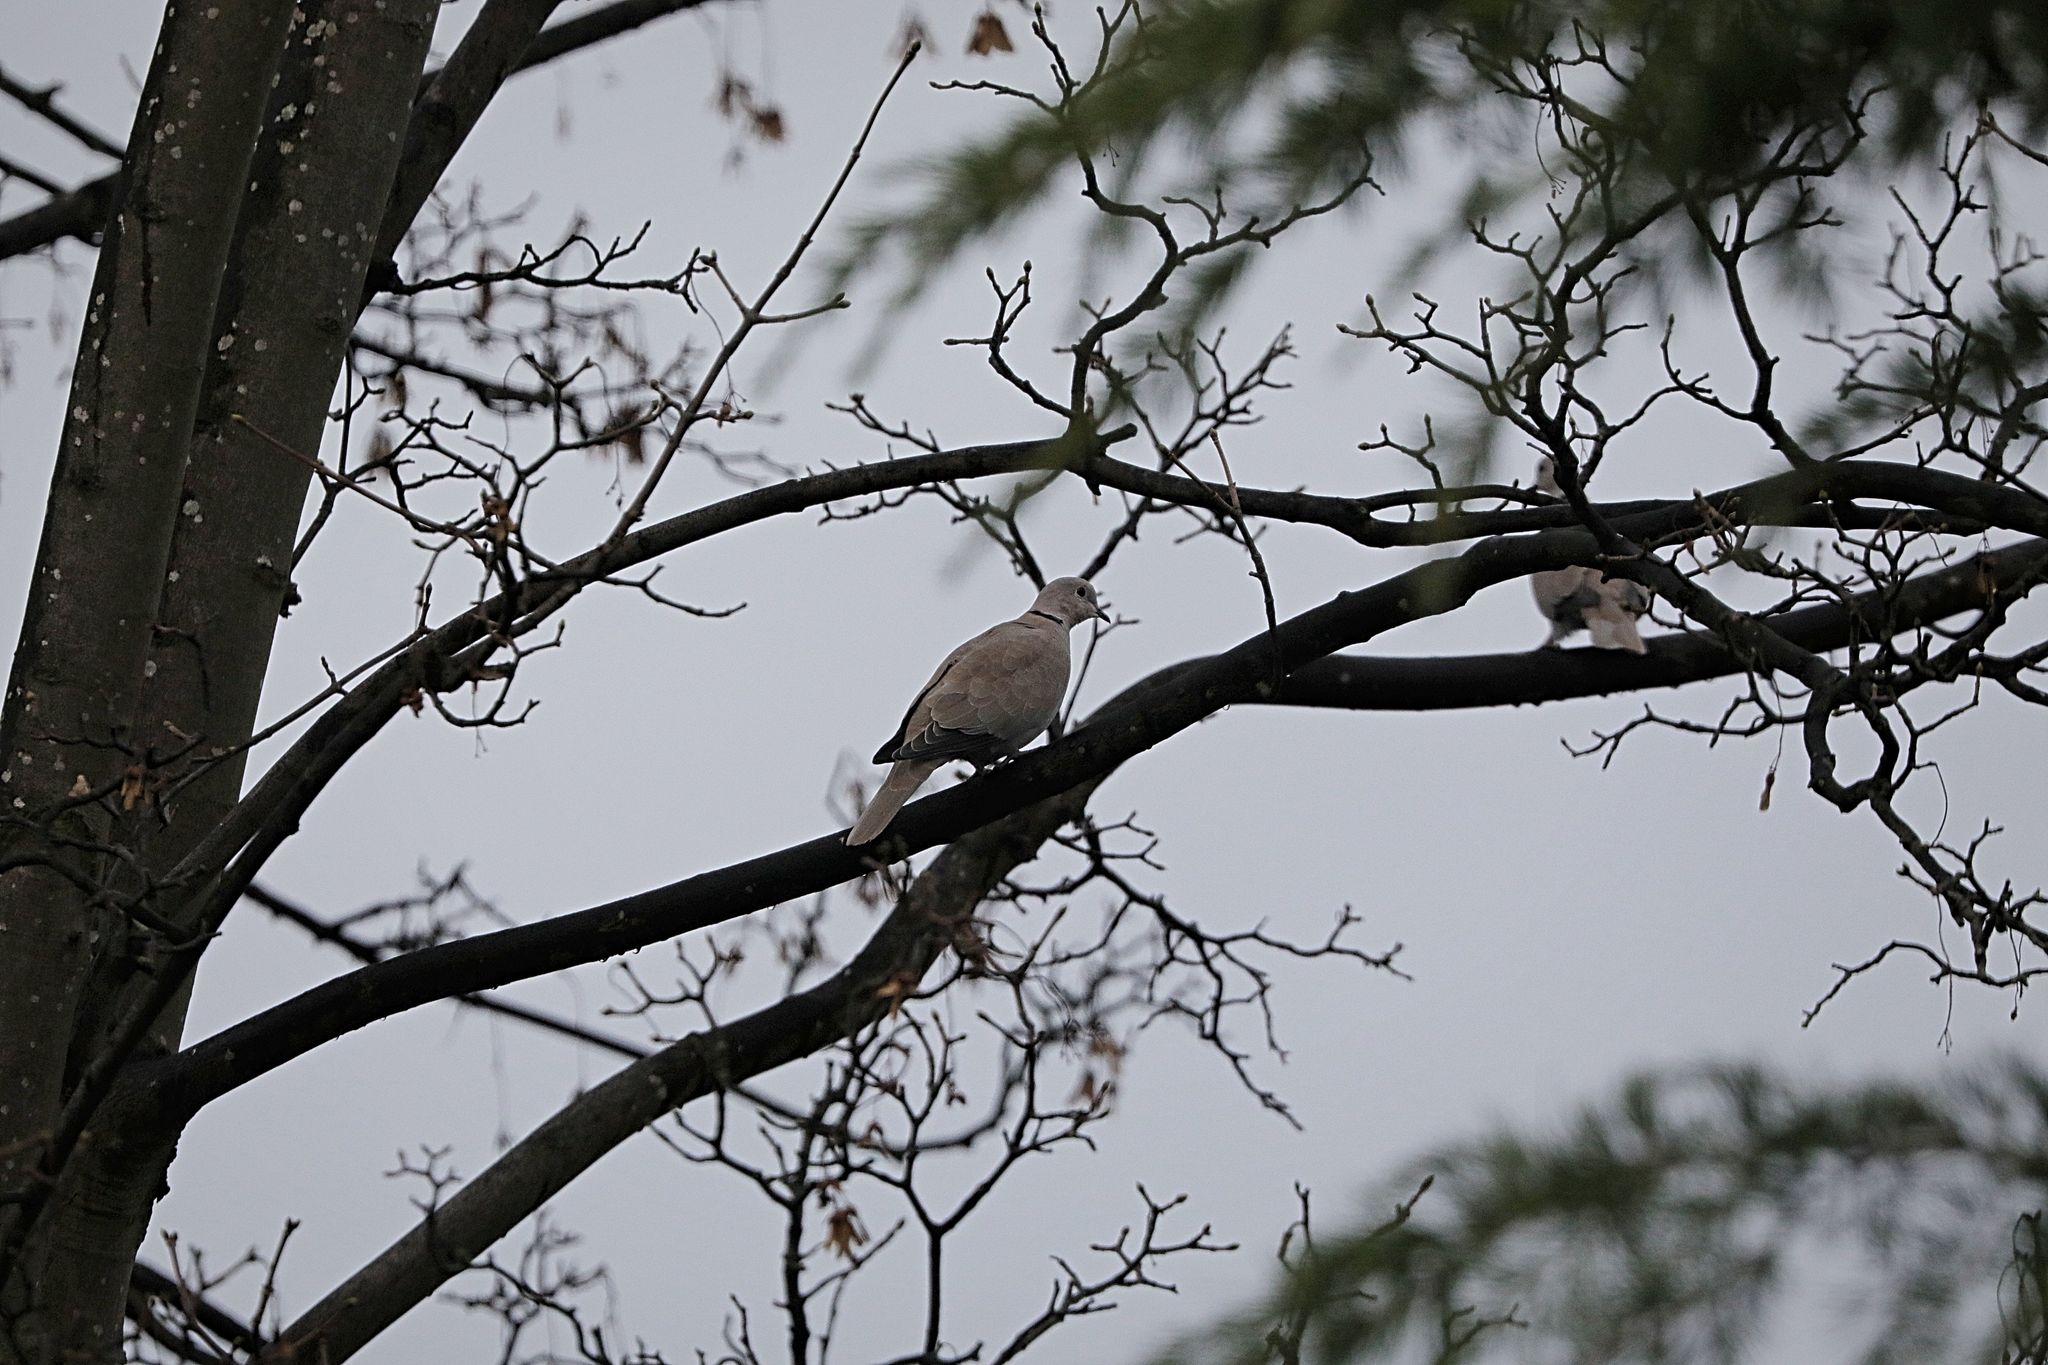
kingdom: Animalia
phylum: Chordata
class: Aves
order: Columbiformes
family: Columbidae
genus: Streptopelia
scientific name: Streptopelia decaocto
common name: Eurasian collared dove
